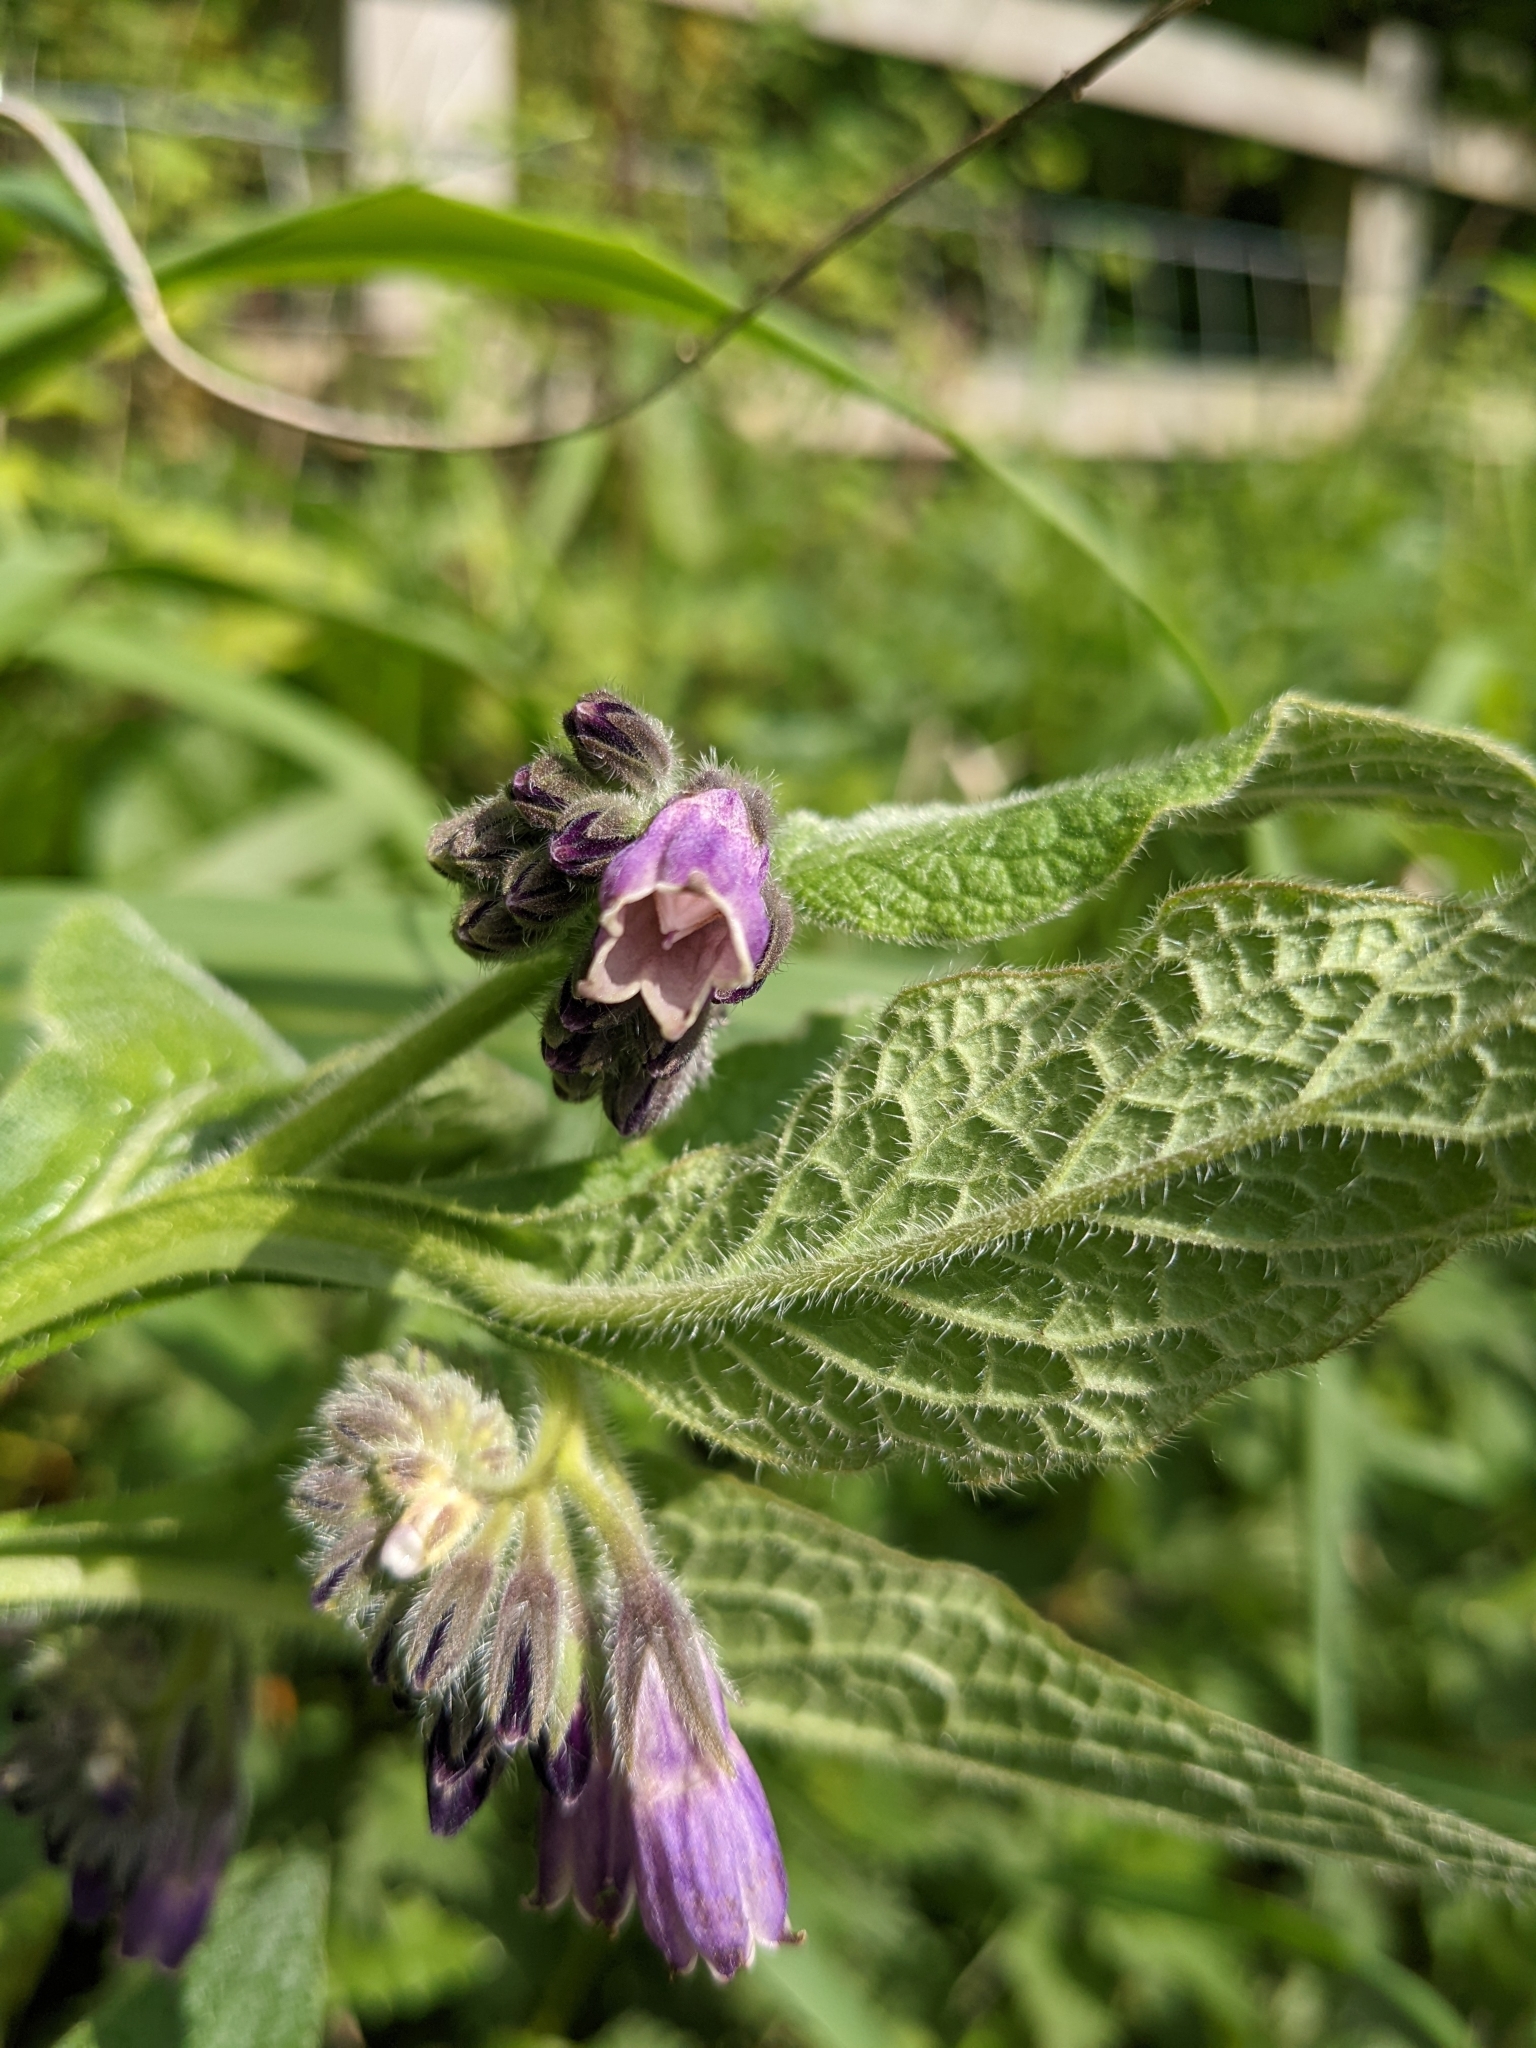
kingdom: Plantae
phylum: Tracheophyta
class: Magnoliopsida
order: Boraginales
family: Boraginaceae
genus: Symphytum
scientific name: Symphytum officinale
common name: Common comfrey
